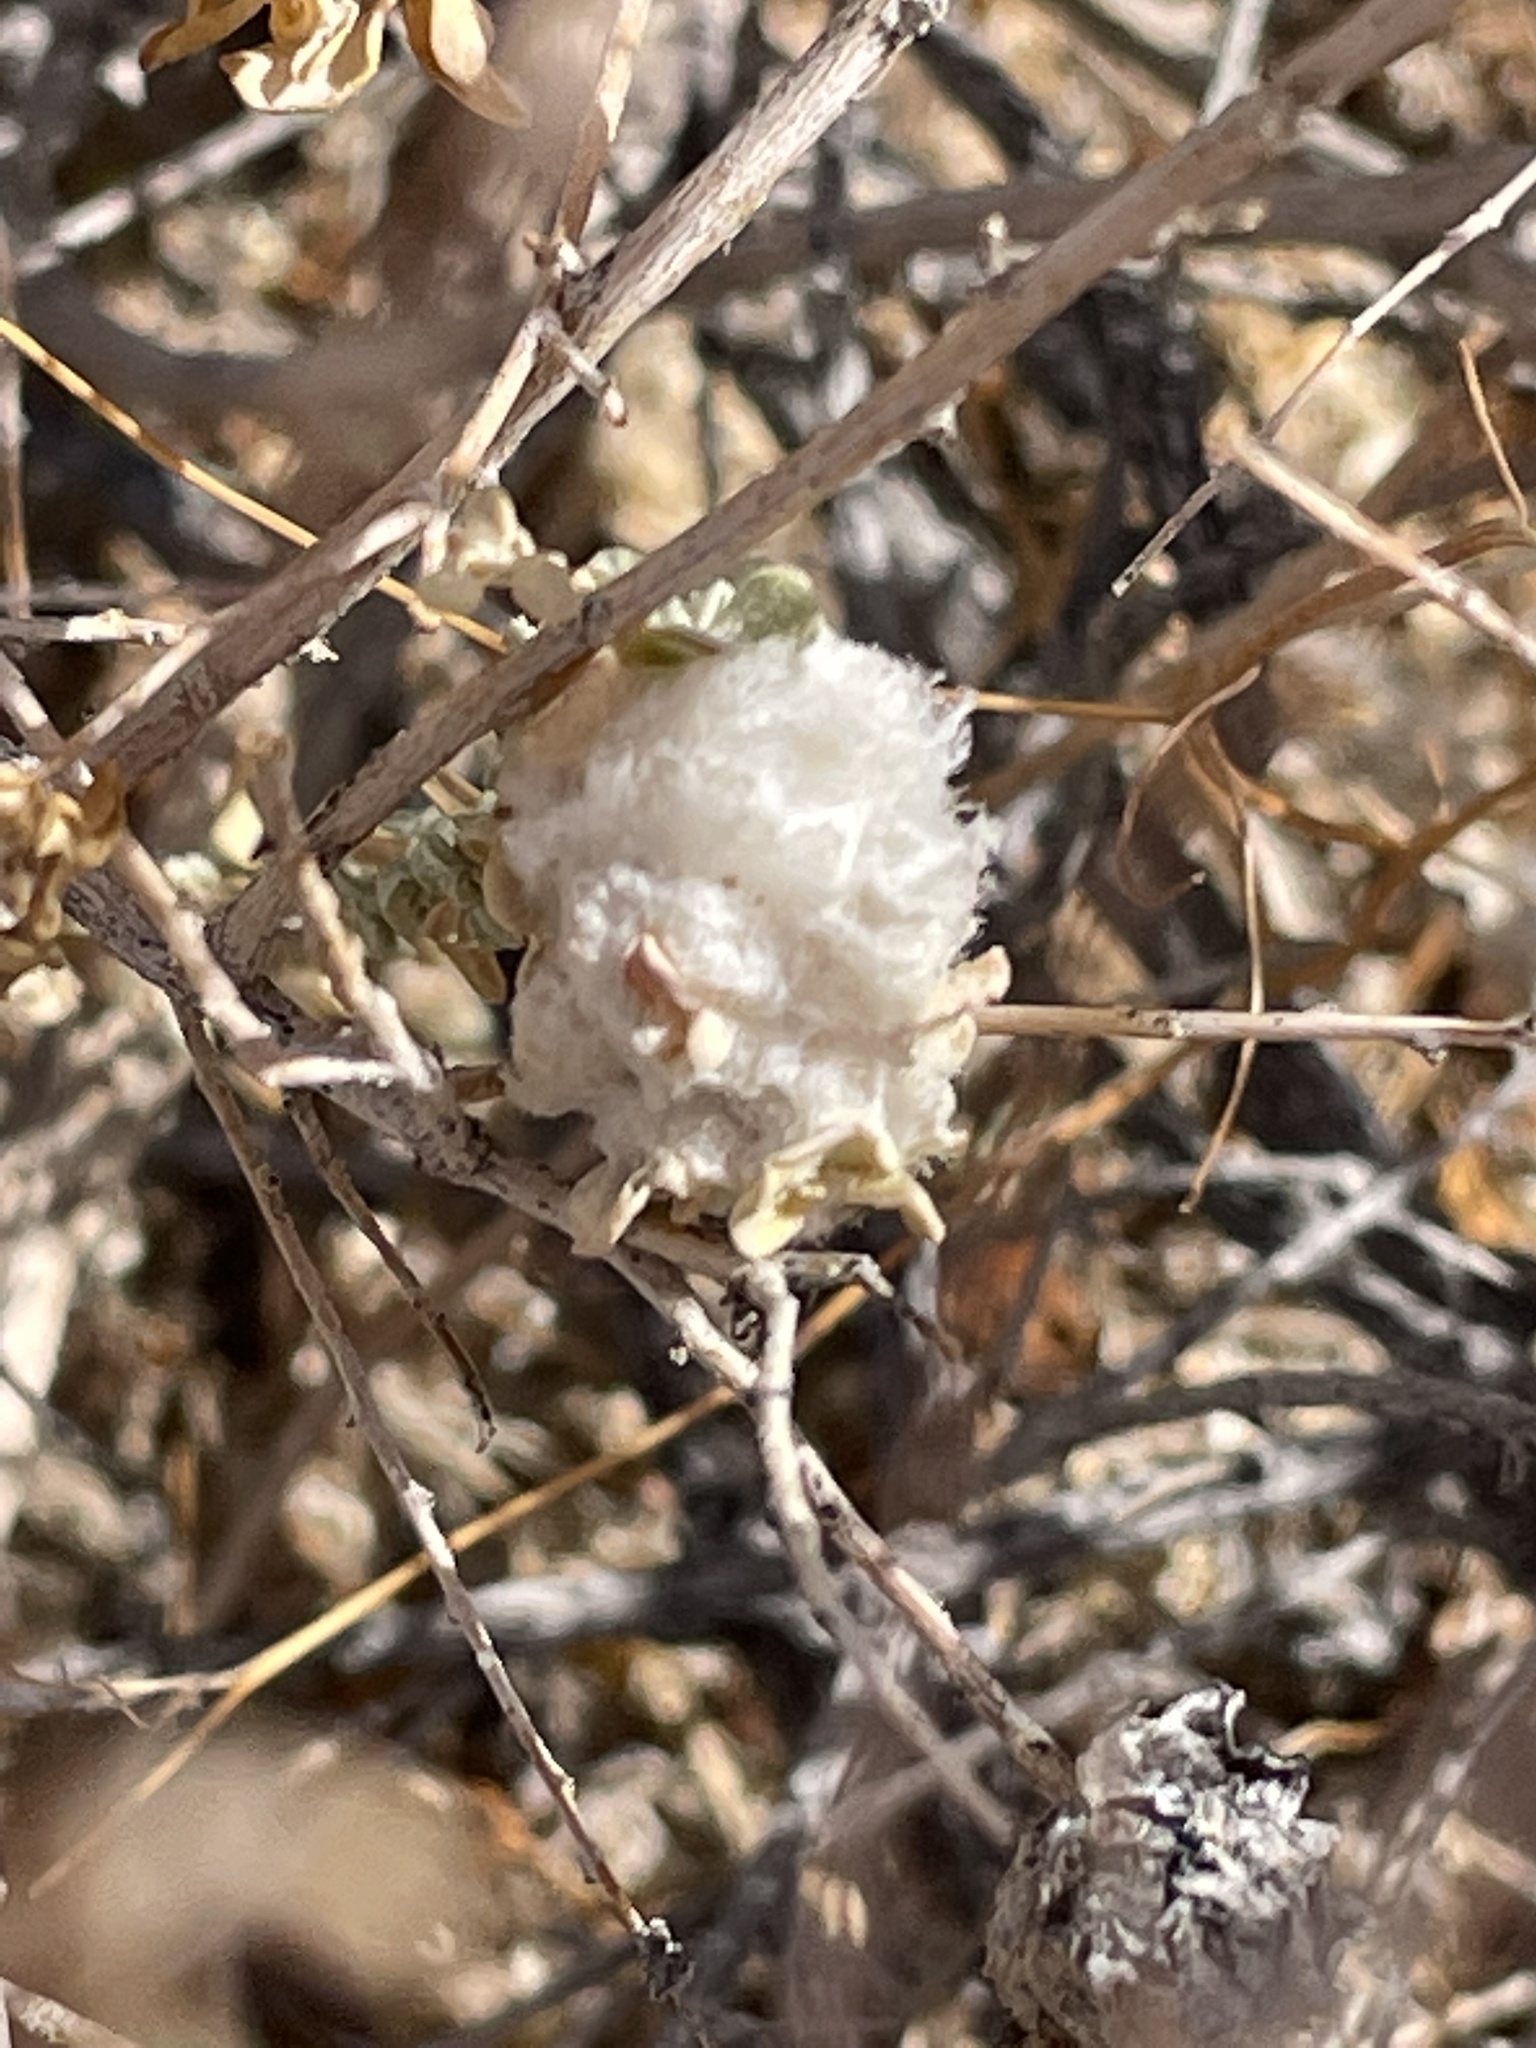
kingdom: Animalia
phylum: Arthropoda
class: Insecta
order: Diptera
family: Cecidomyiidae
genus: Asphondylia
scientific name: Asphondylia floccosa
